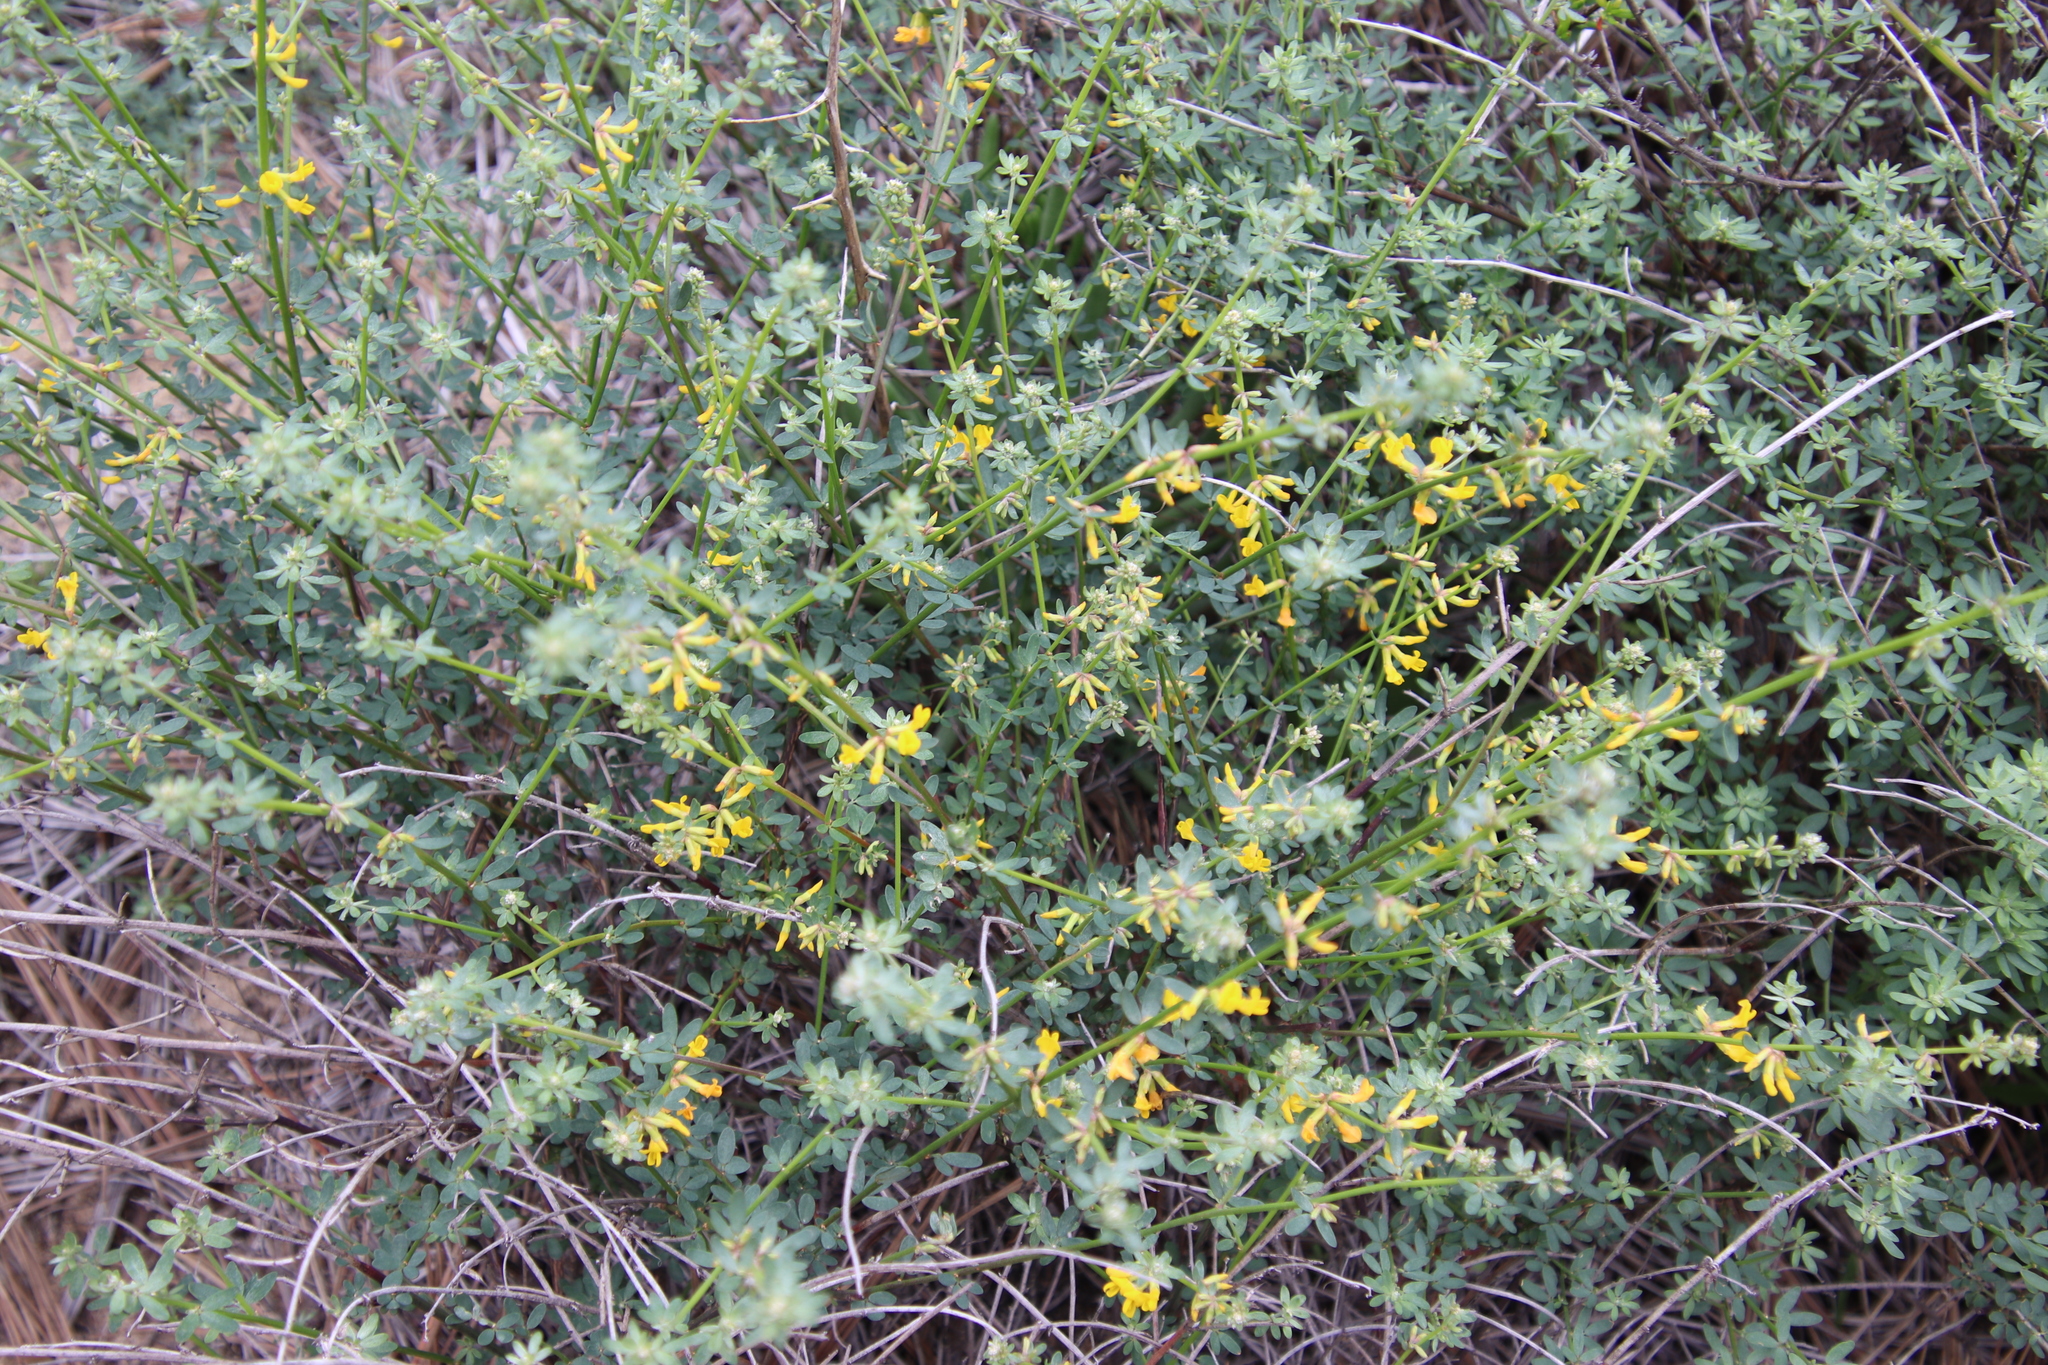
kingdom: Plantae
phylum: Tracheophyta
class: Magnoliopsida
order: Fabales
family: Fabaceae
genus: Acmispon
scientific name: Acmispon glaber
